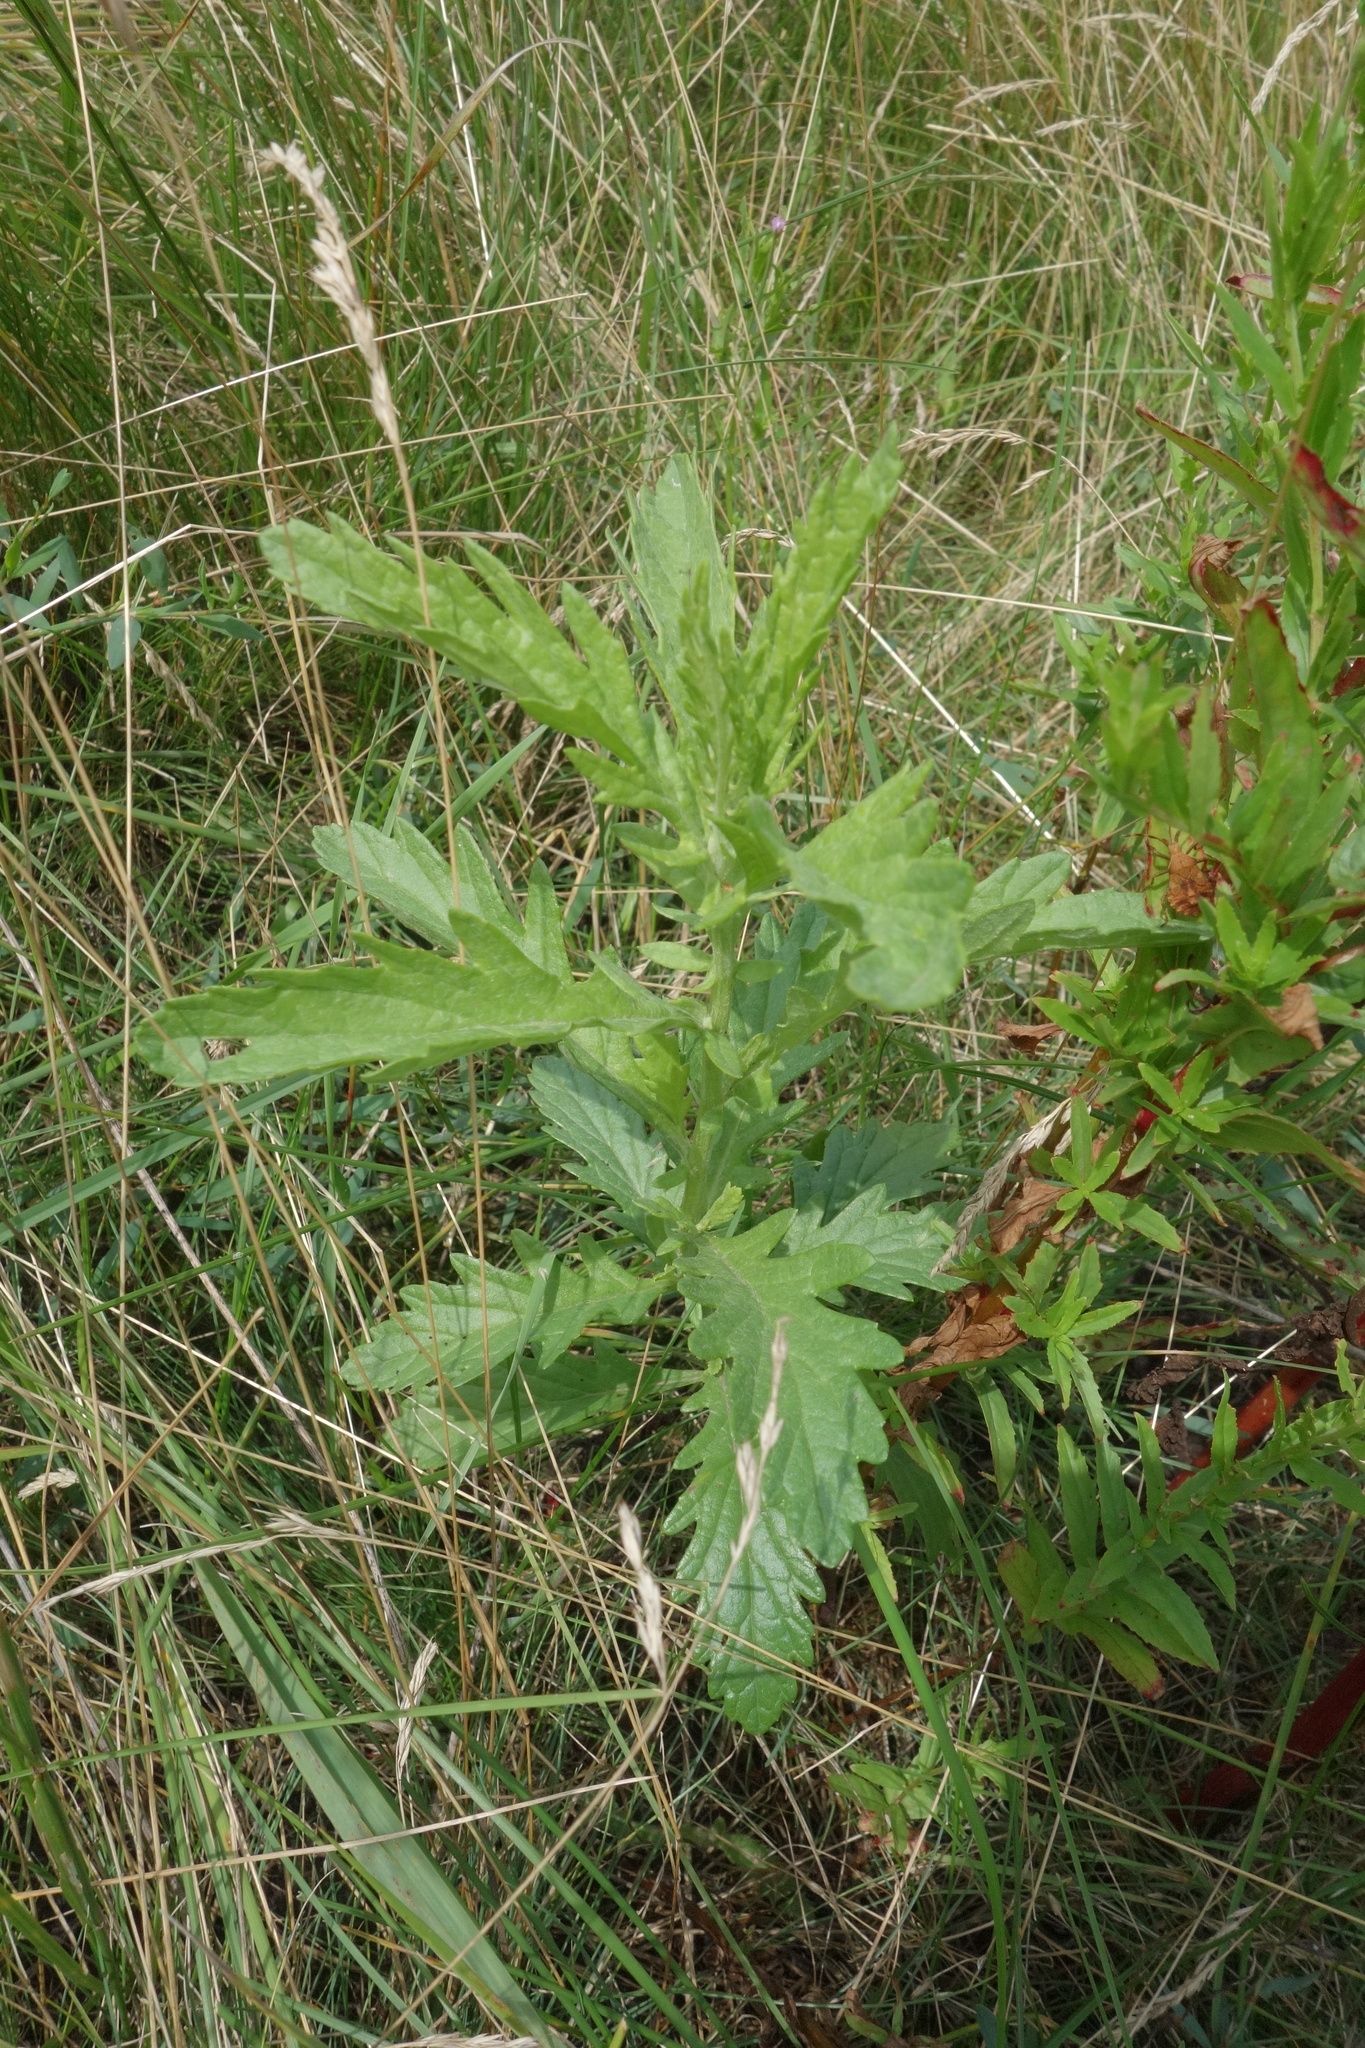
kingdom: Plantae
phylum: Tracheophyta
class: Magnoliopsida
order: Asterales
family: Asteraceae
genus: Jacobaea
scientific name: Jacobaea erucifolia
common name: Hoary ragwort
